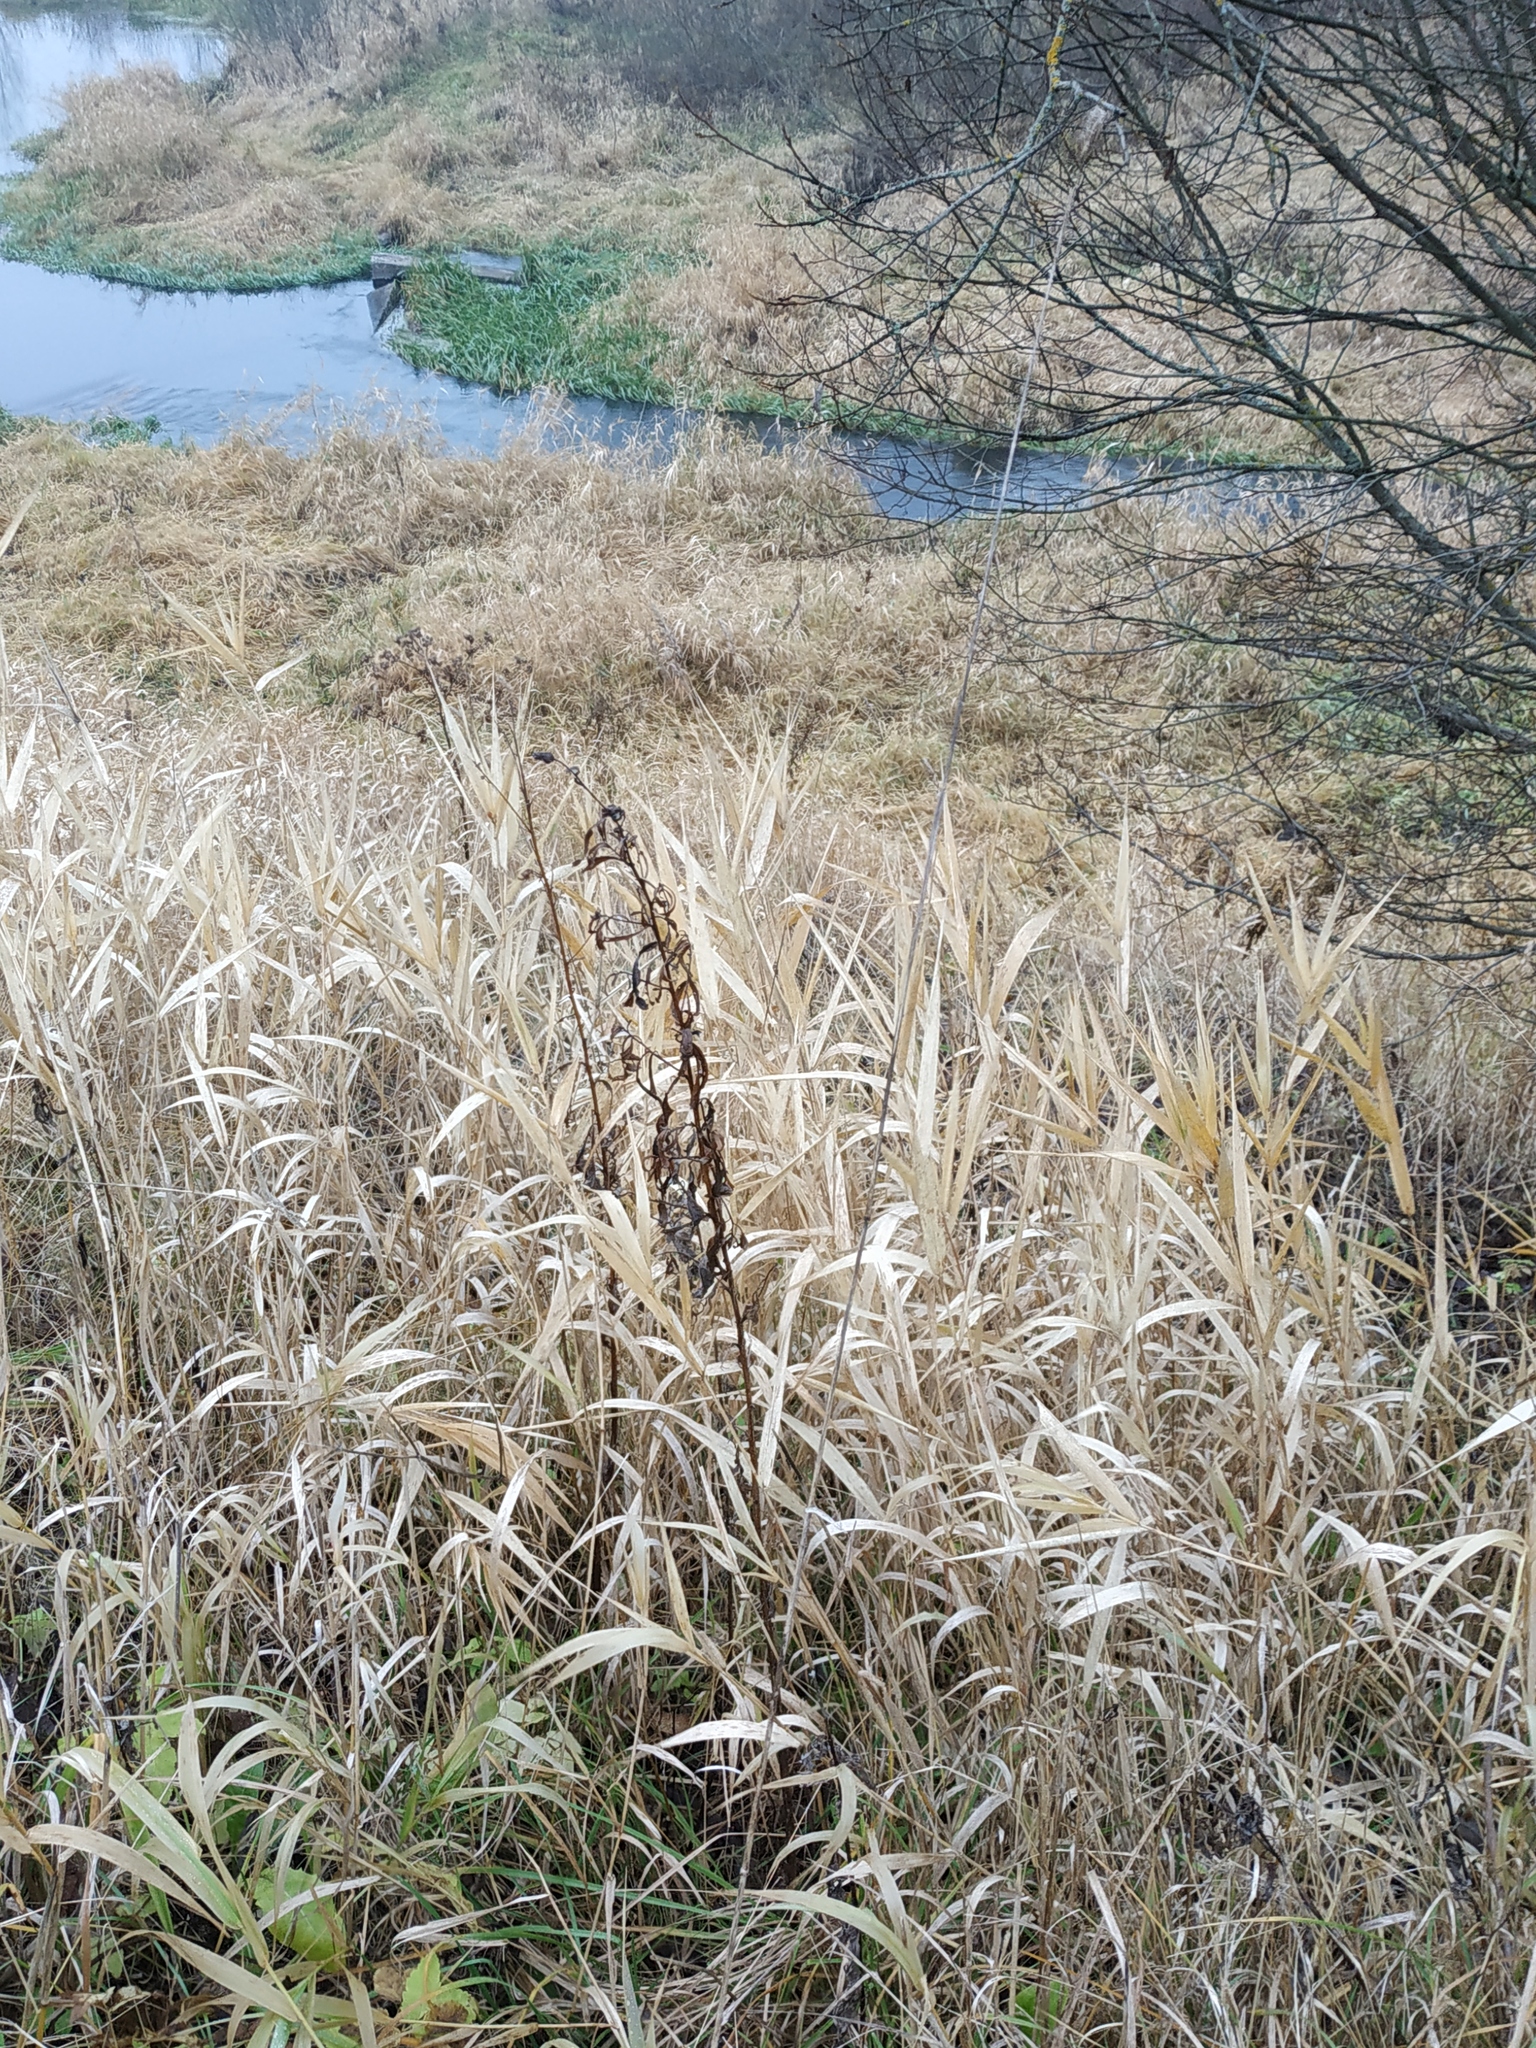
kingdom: Plantae
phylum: Tracheophyta
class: Liliopsida
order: Poales
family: Poaceae
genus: Phragmites
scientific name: Phragmites australis
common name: Common reed
